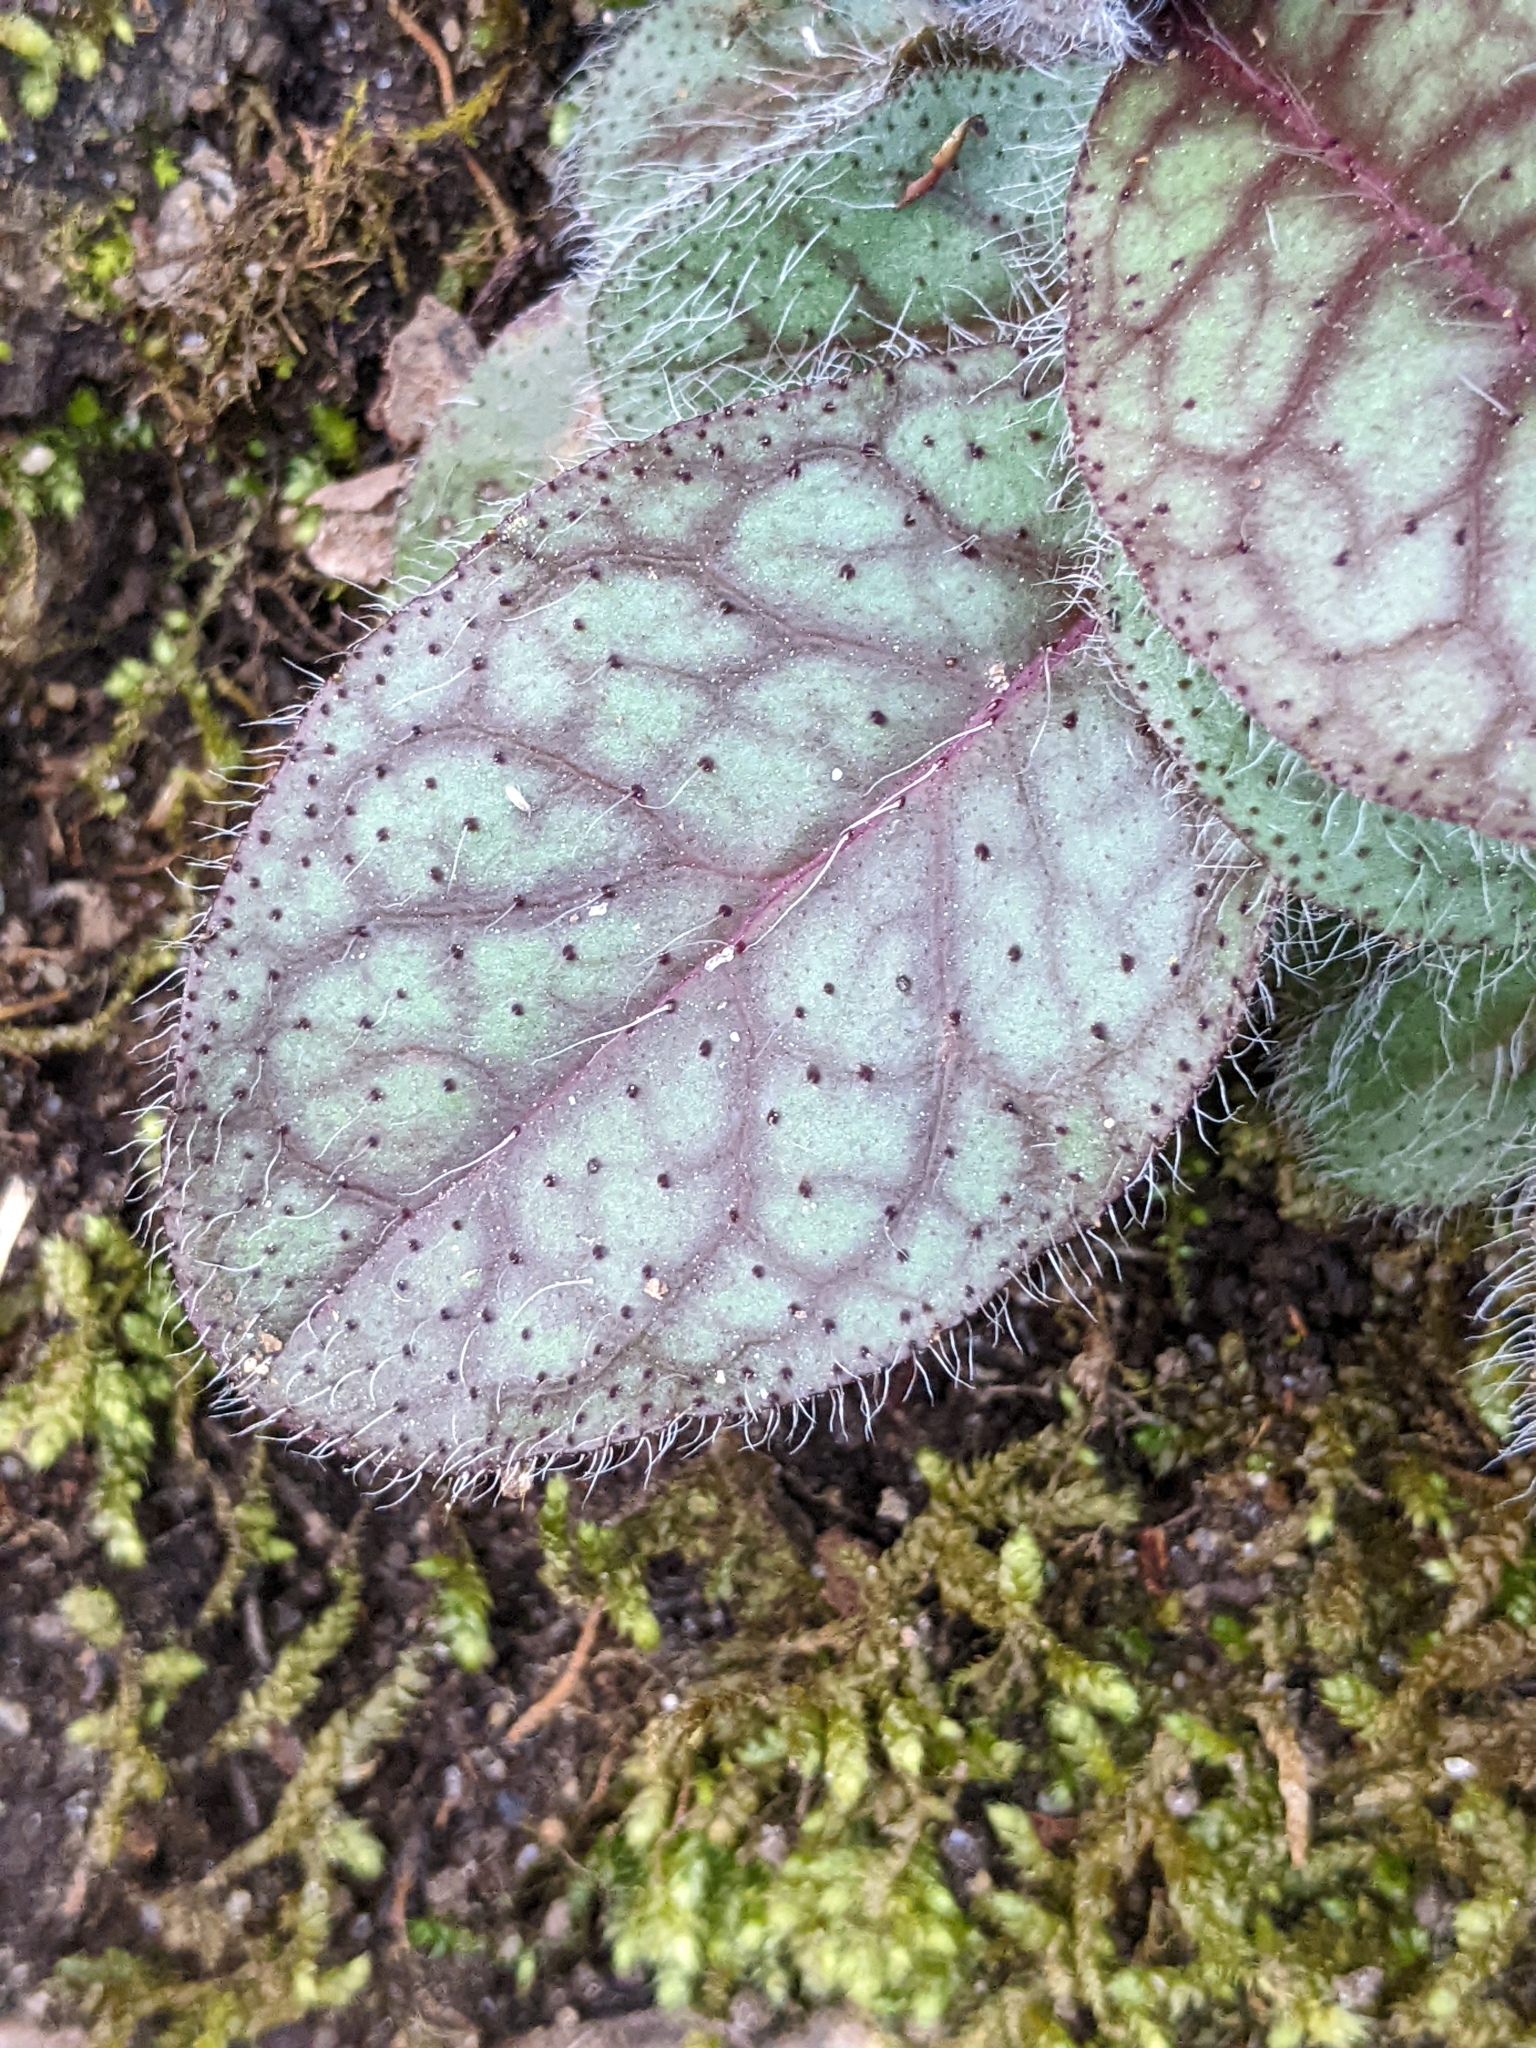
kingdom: Plantae
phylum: Tracheophyta
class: Magnoliopsida
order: Asterales
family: Asteraceae
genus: Hieracium
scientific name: Hieracium venosum
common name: Rattlesnake hawkweed
